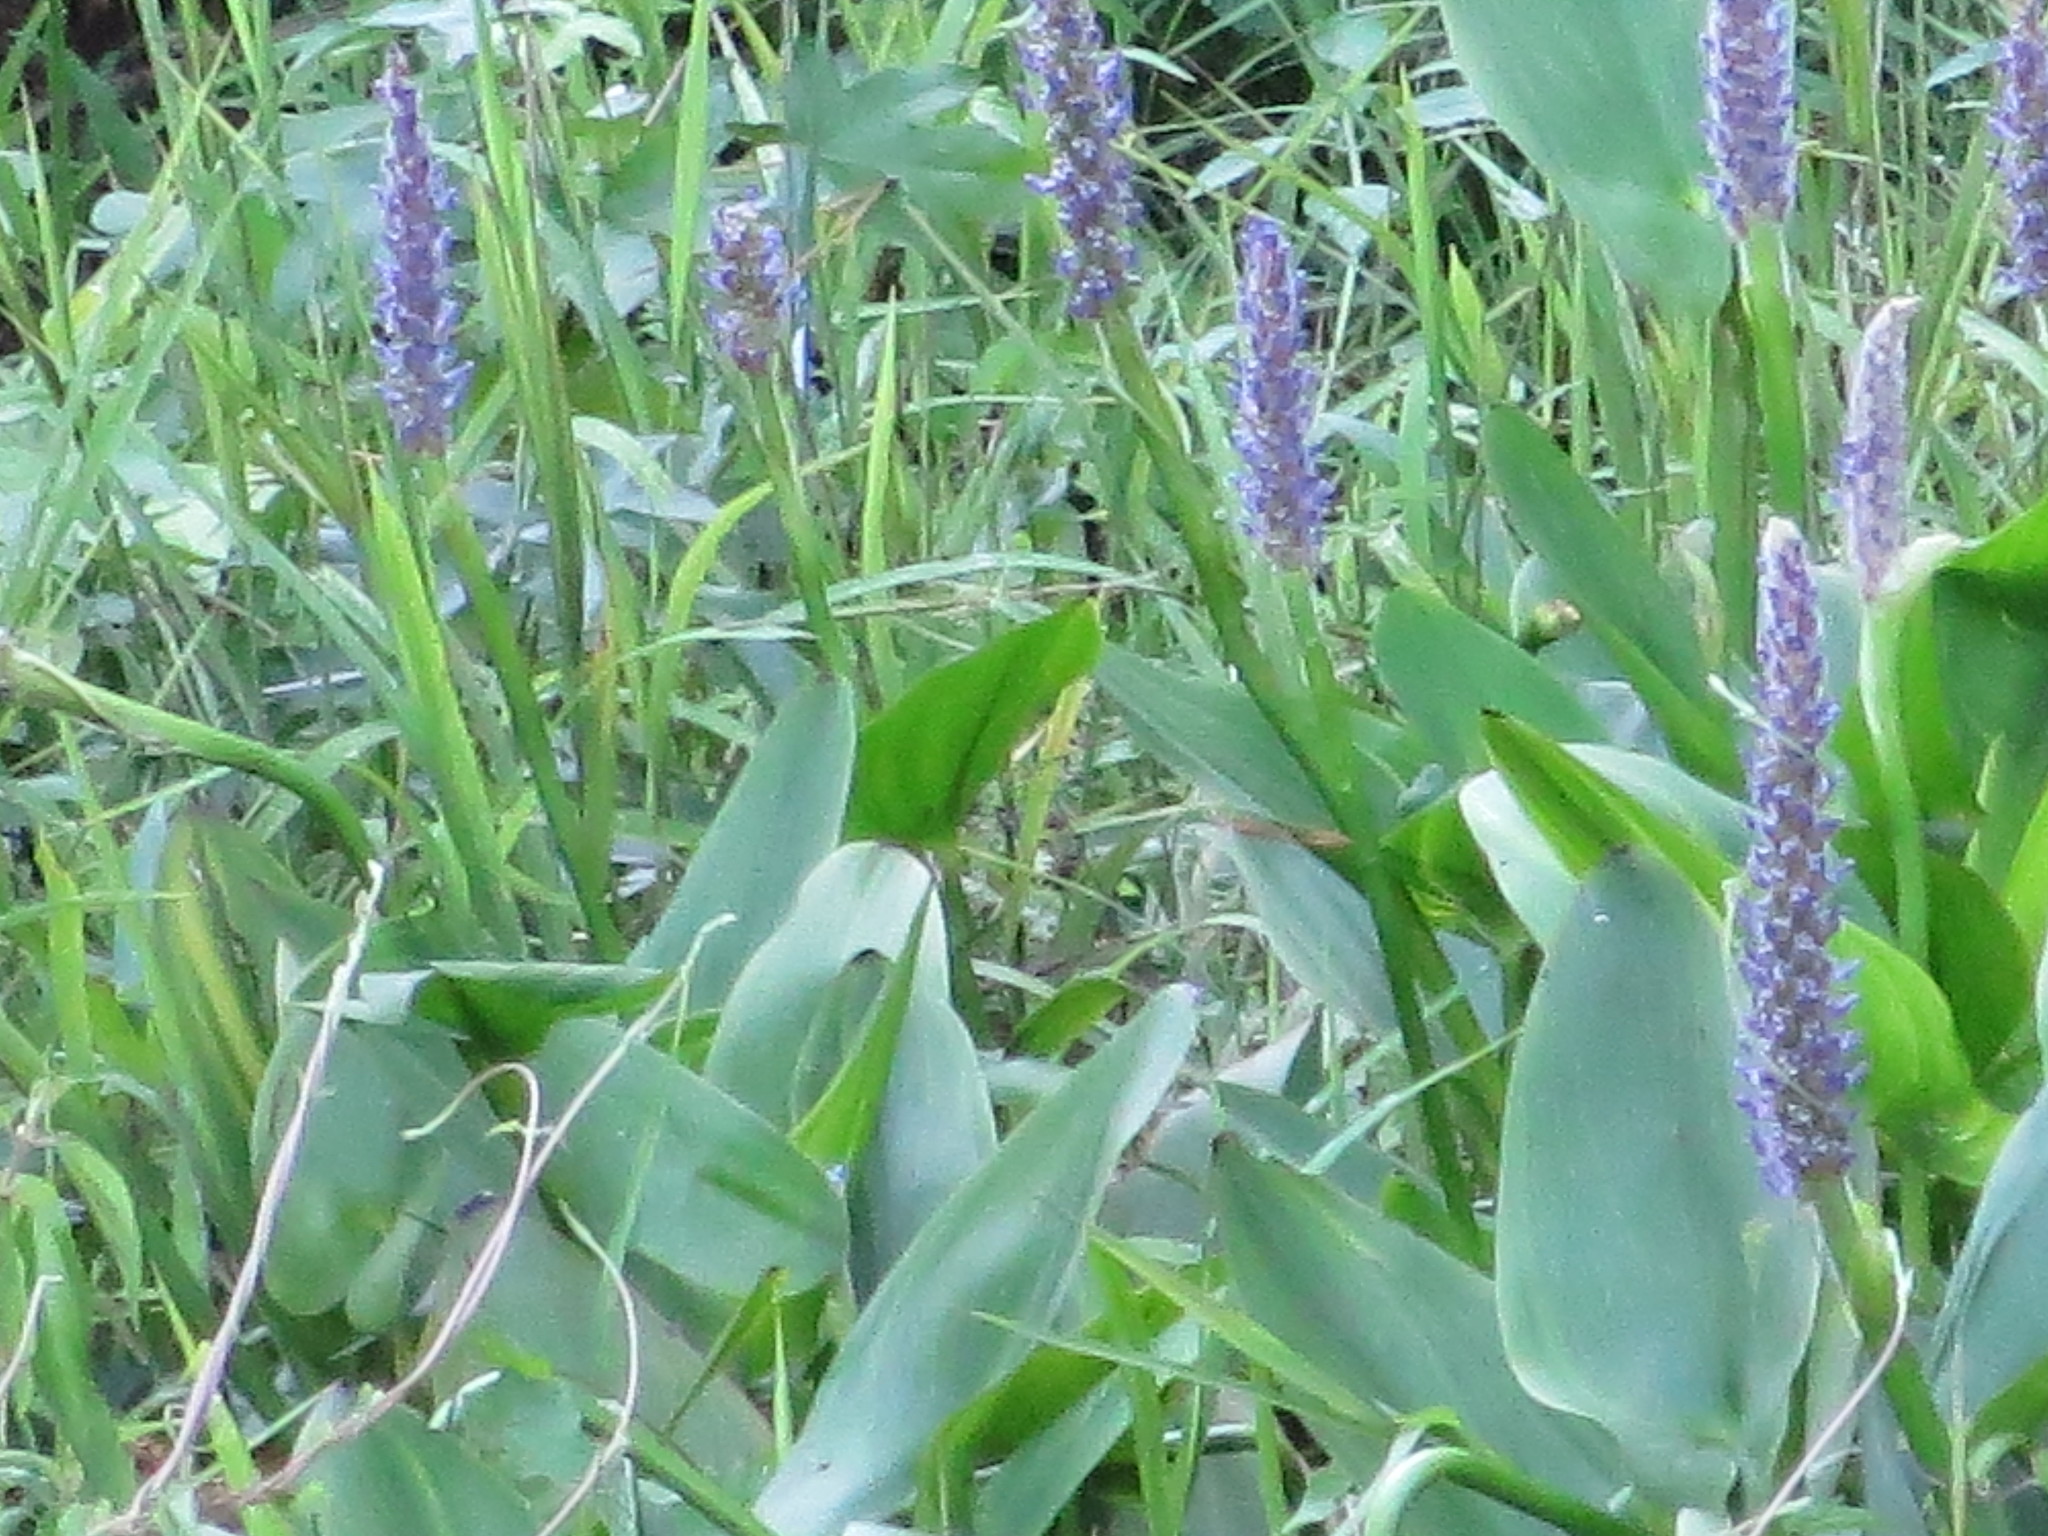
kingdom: Plantae
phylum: Tracheophyta
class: Liliopsida
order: Commelinales
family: Pontederiaceae
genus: Pontederia
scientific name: Pontederia cordata
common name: Pickerelweed
